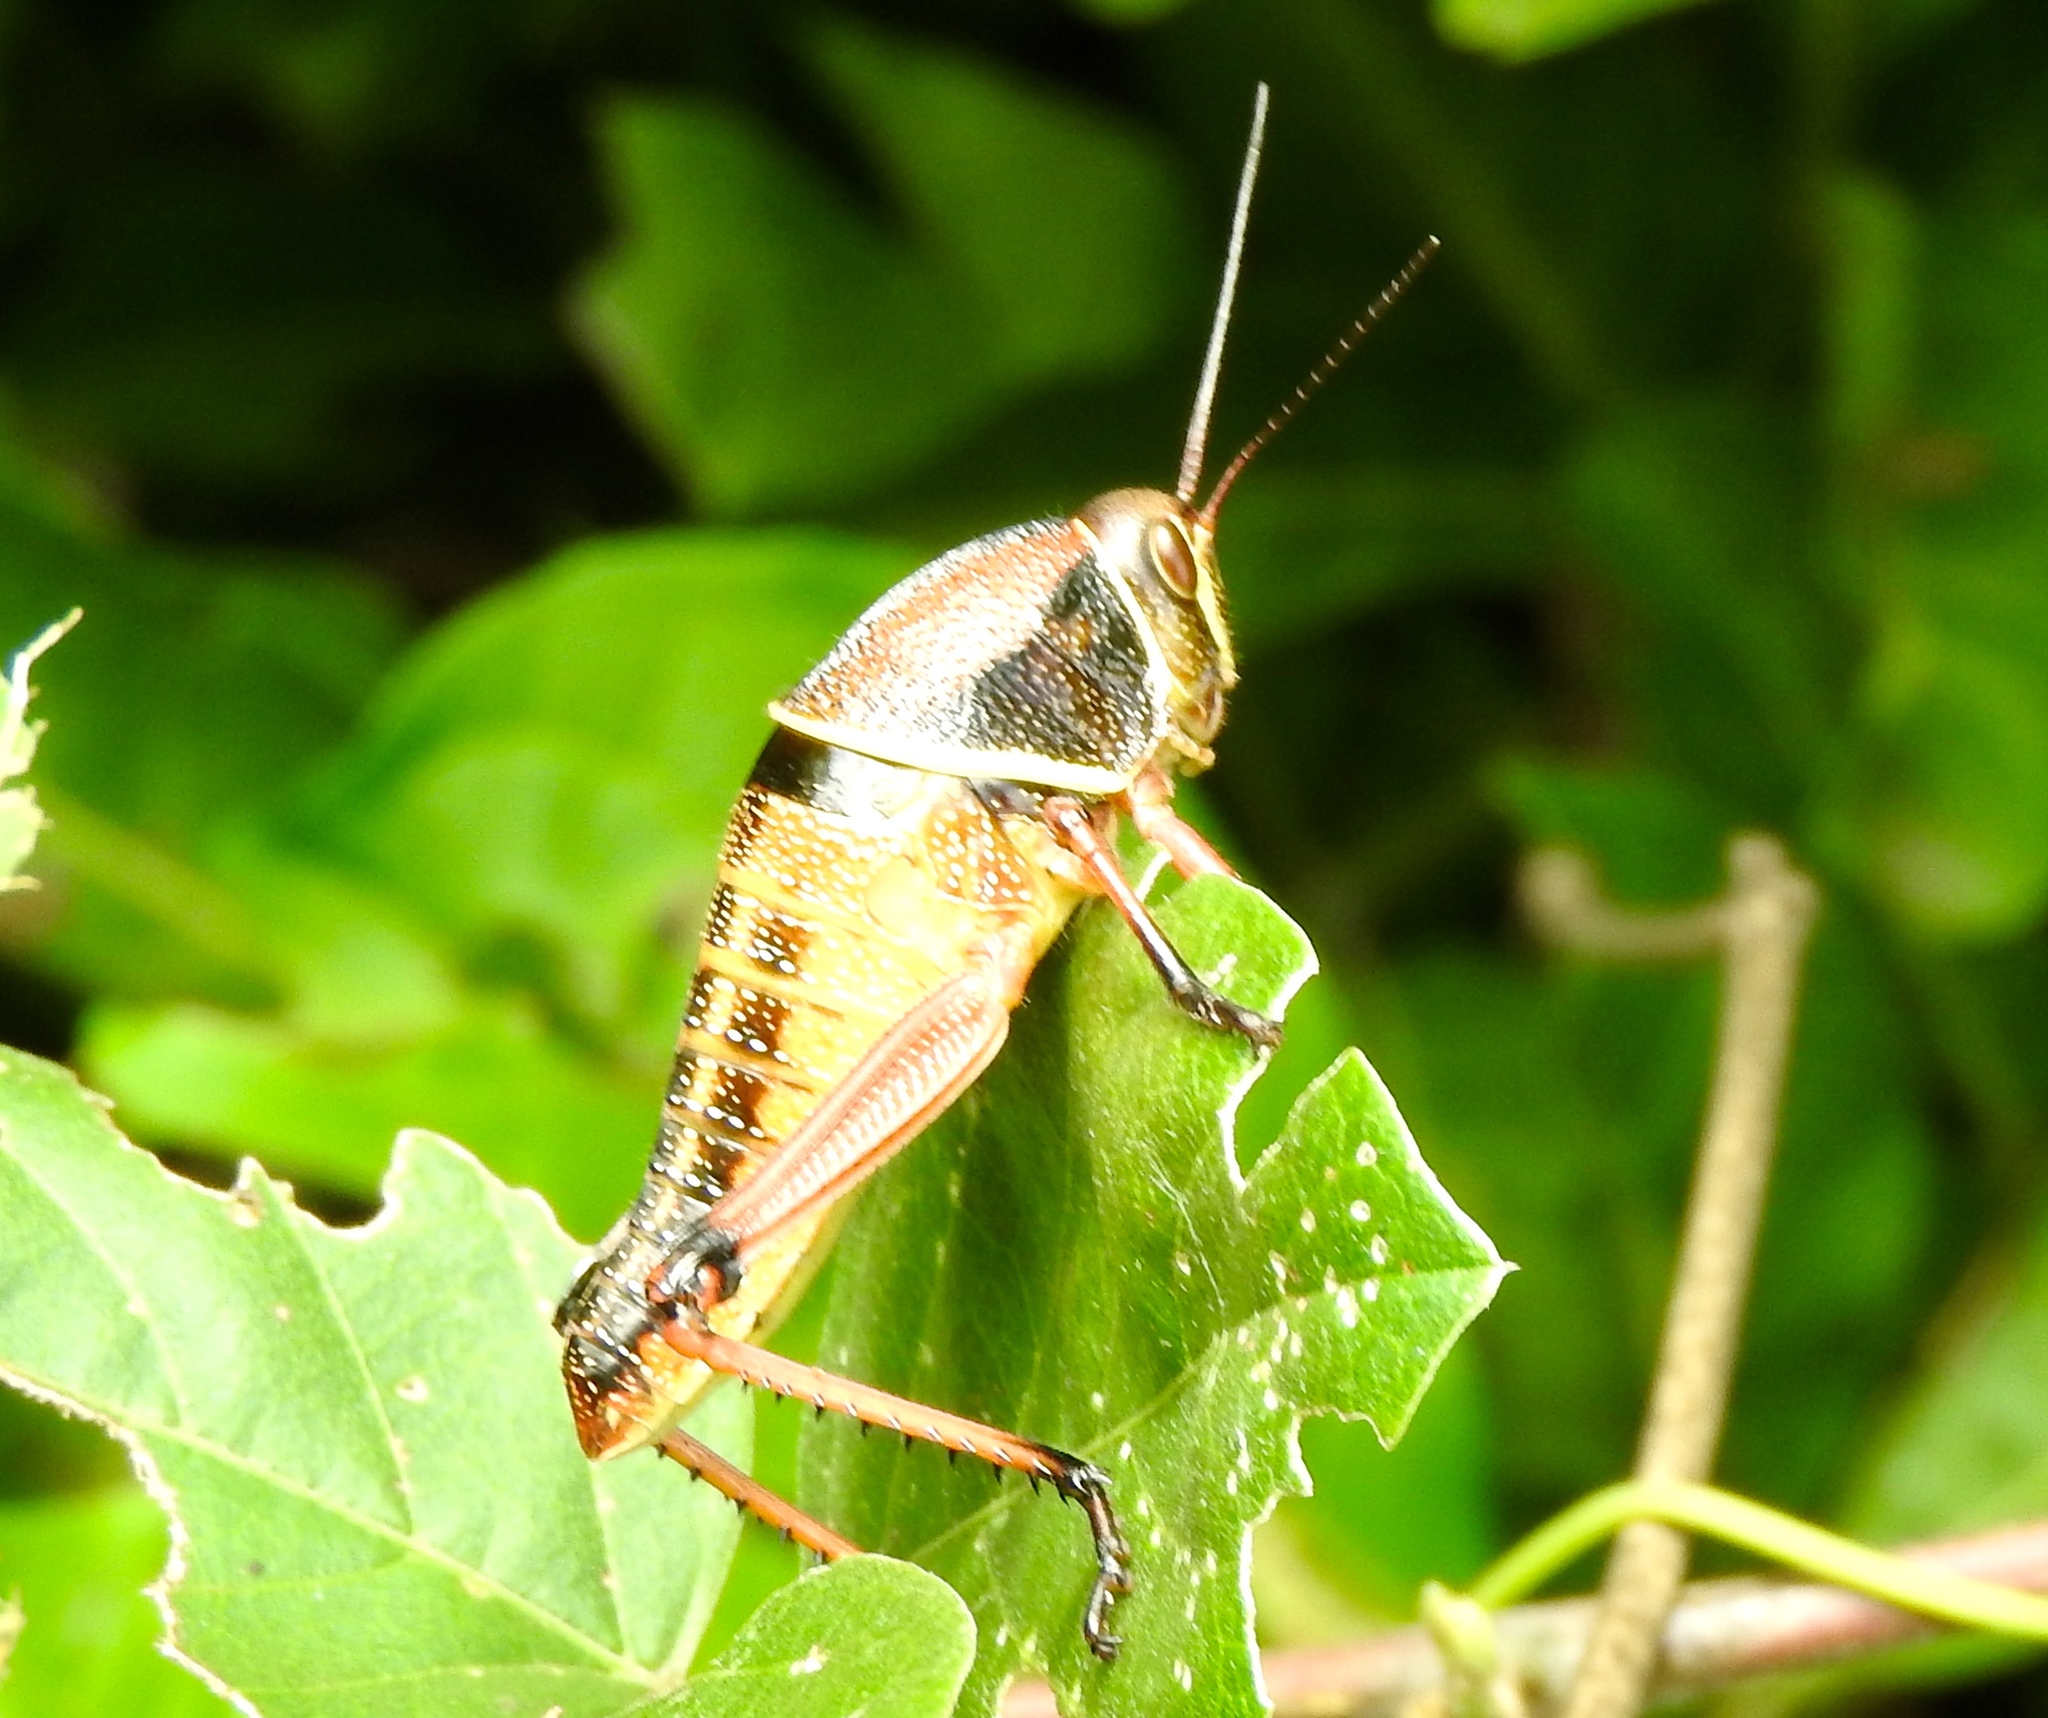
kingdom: Animalia
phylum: Arthropoda
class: Insecta
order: Orthoptera
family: Romaleidae
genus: Brachystola
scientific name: Brachystola
